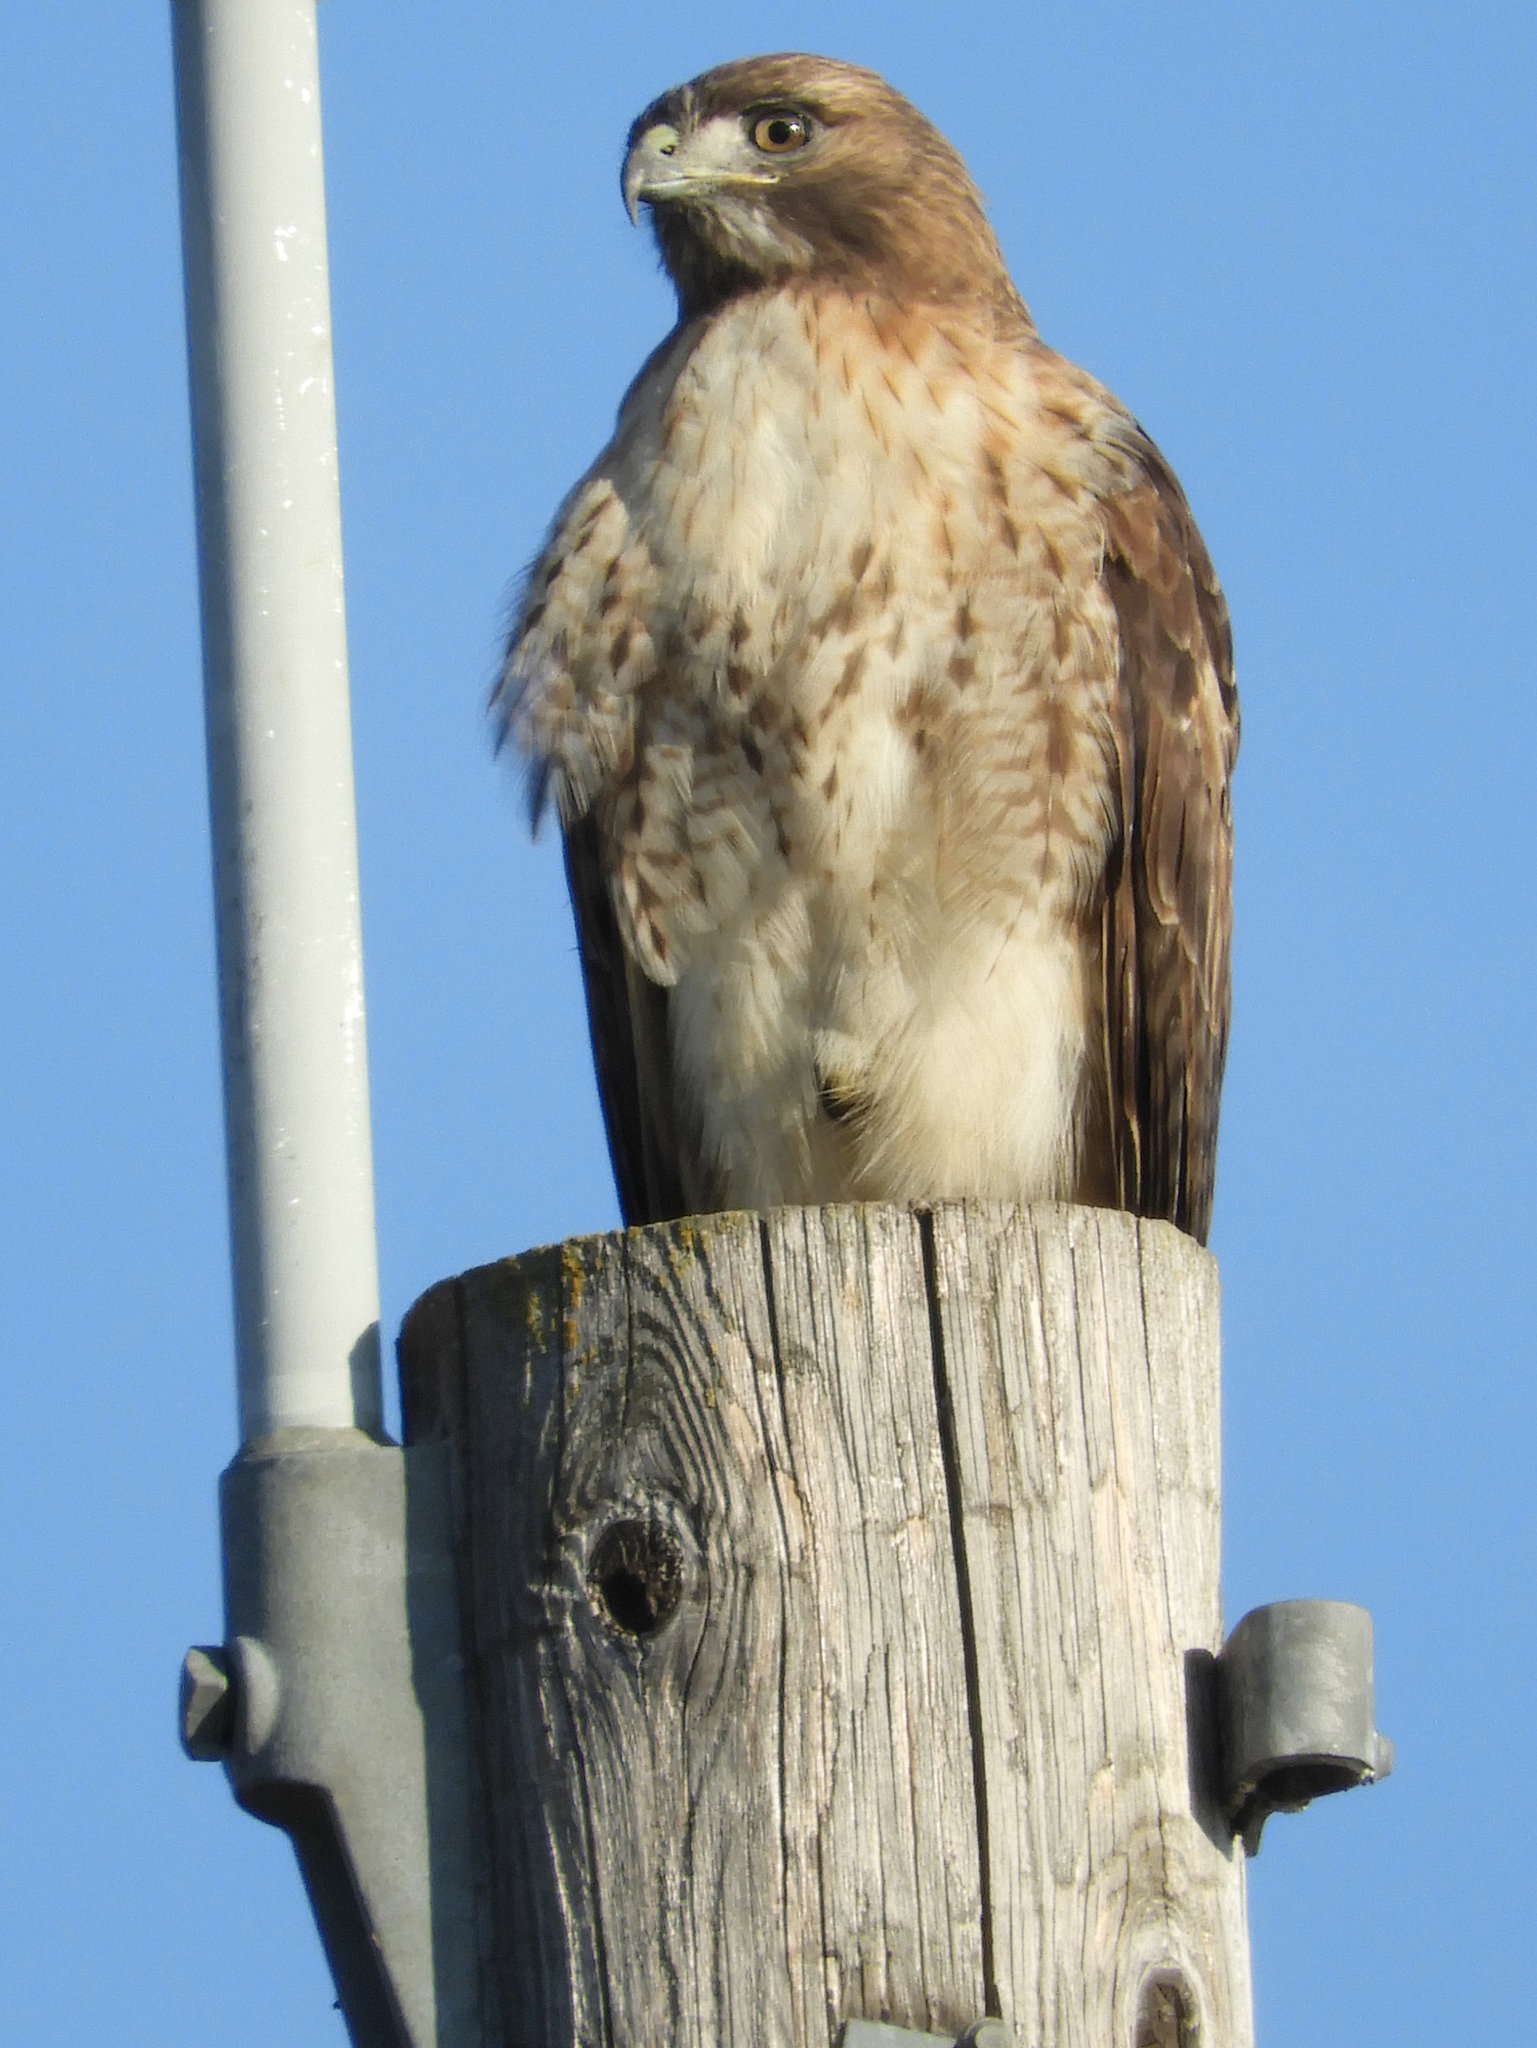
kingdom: Animalia
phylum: Chordata
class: Aves
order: Accipitriformes
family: Accipitridae
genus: Buteo
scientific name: Buteo jamaicensis
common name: Red-tailed hawk
